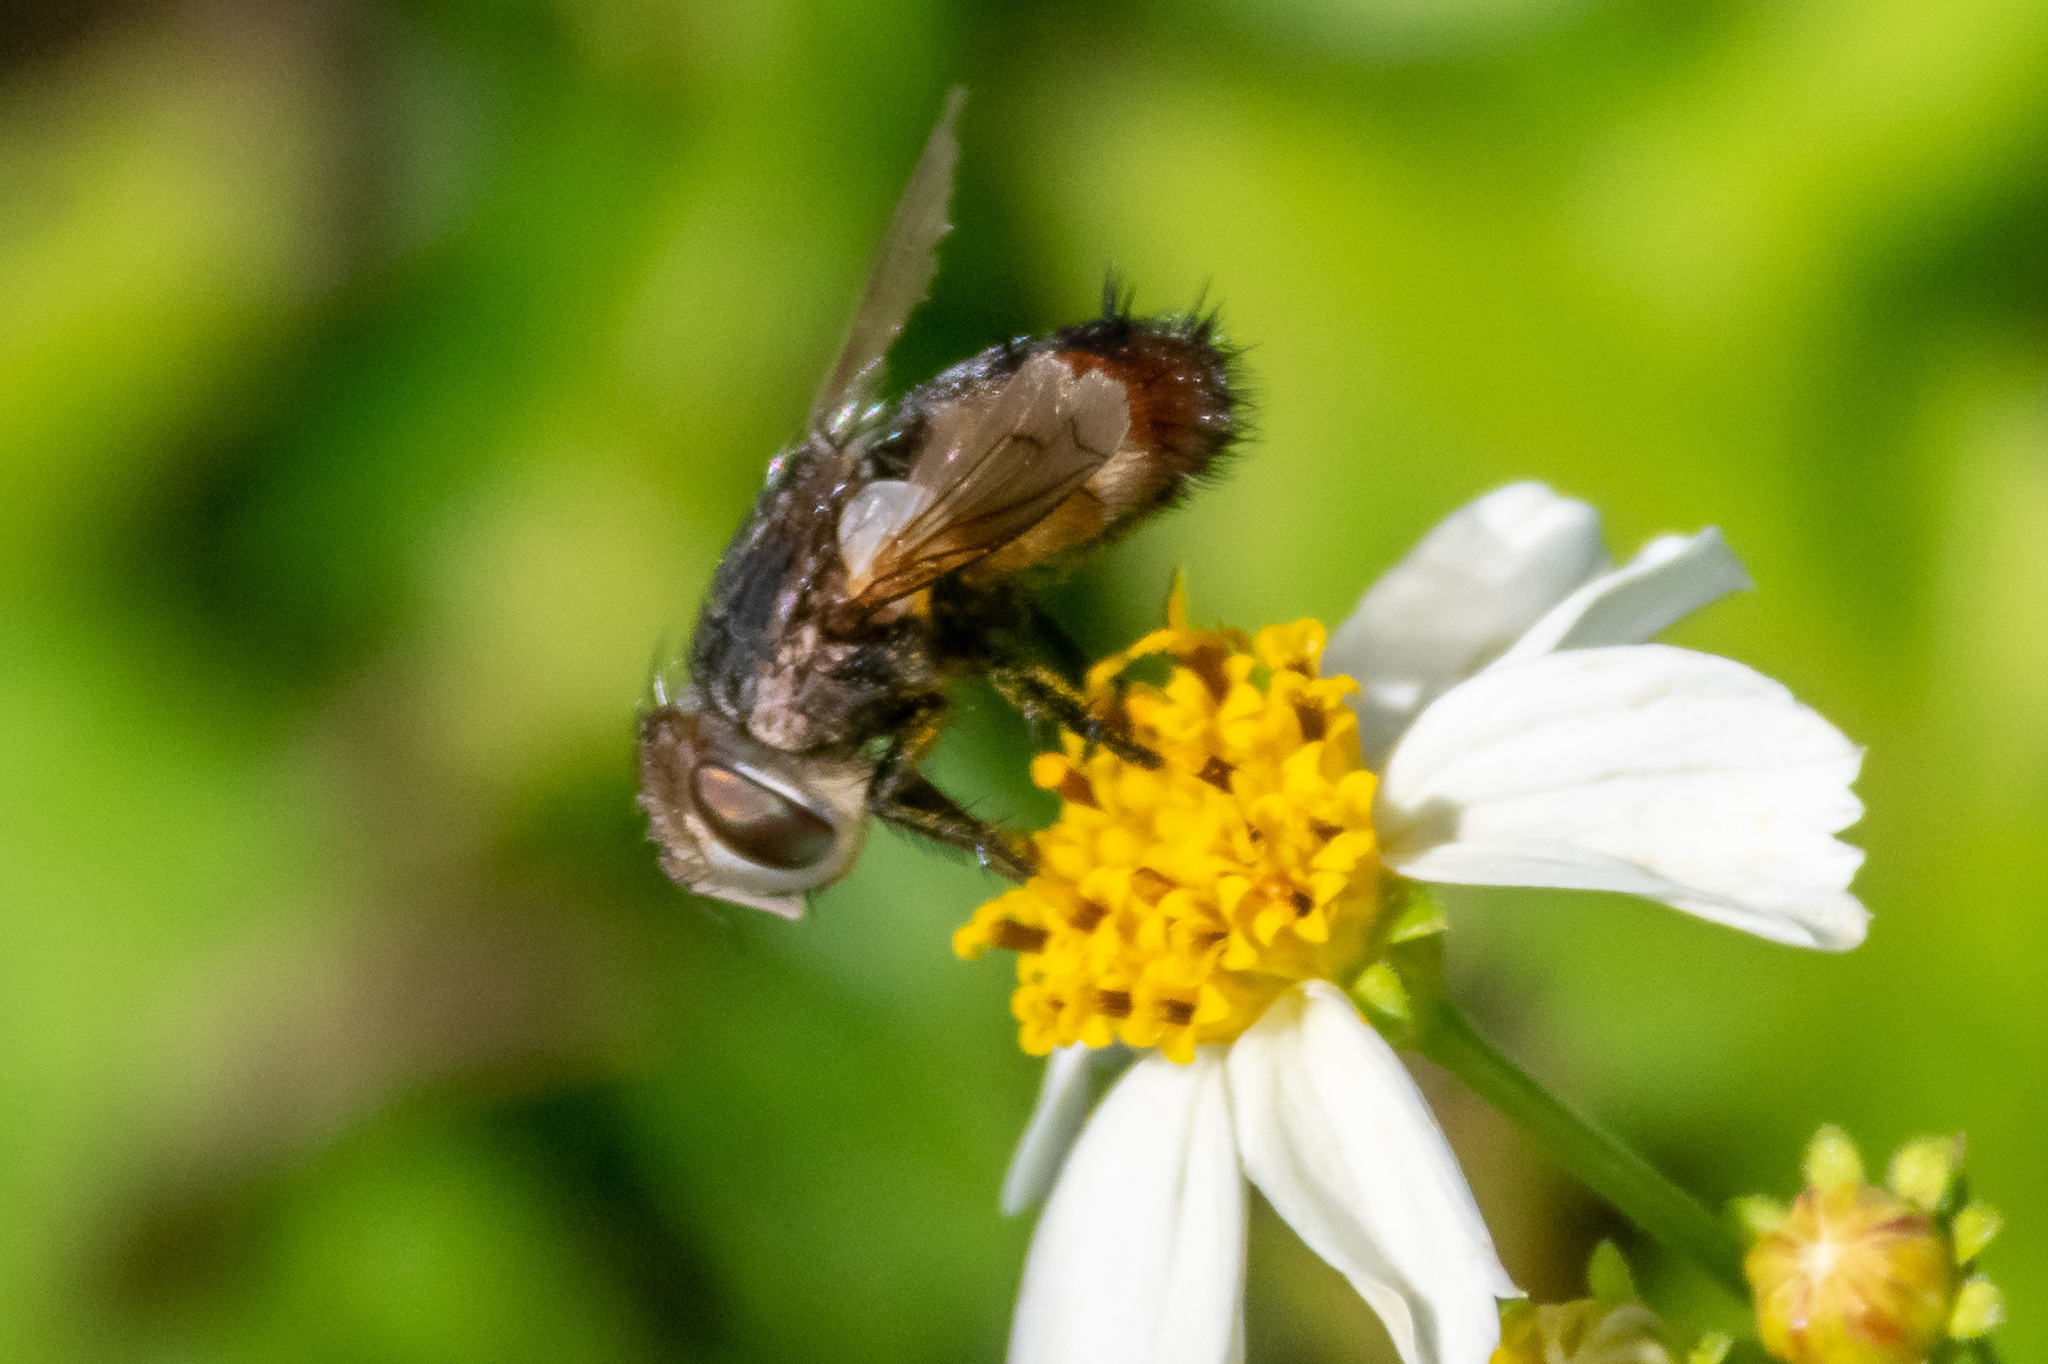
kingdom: Animalia
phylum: Arthropoda
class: Insecta
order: Diptera
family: Tachinidae
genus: Gonia
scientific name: Gonia crassicornis
